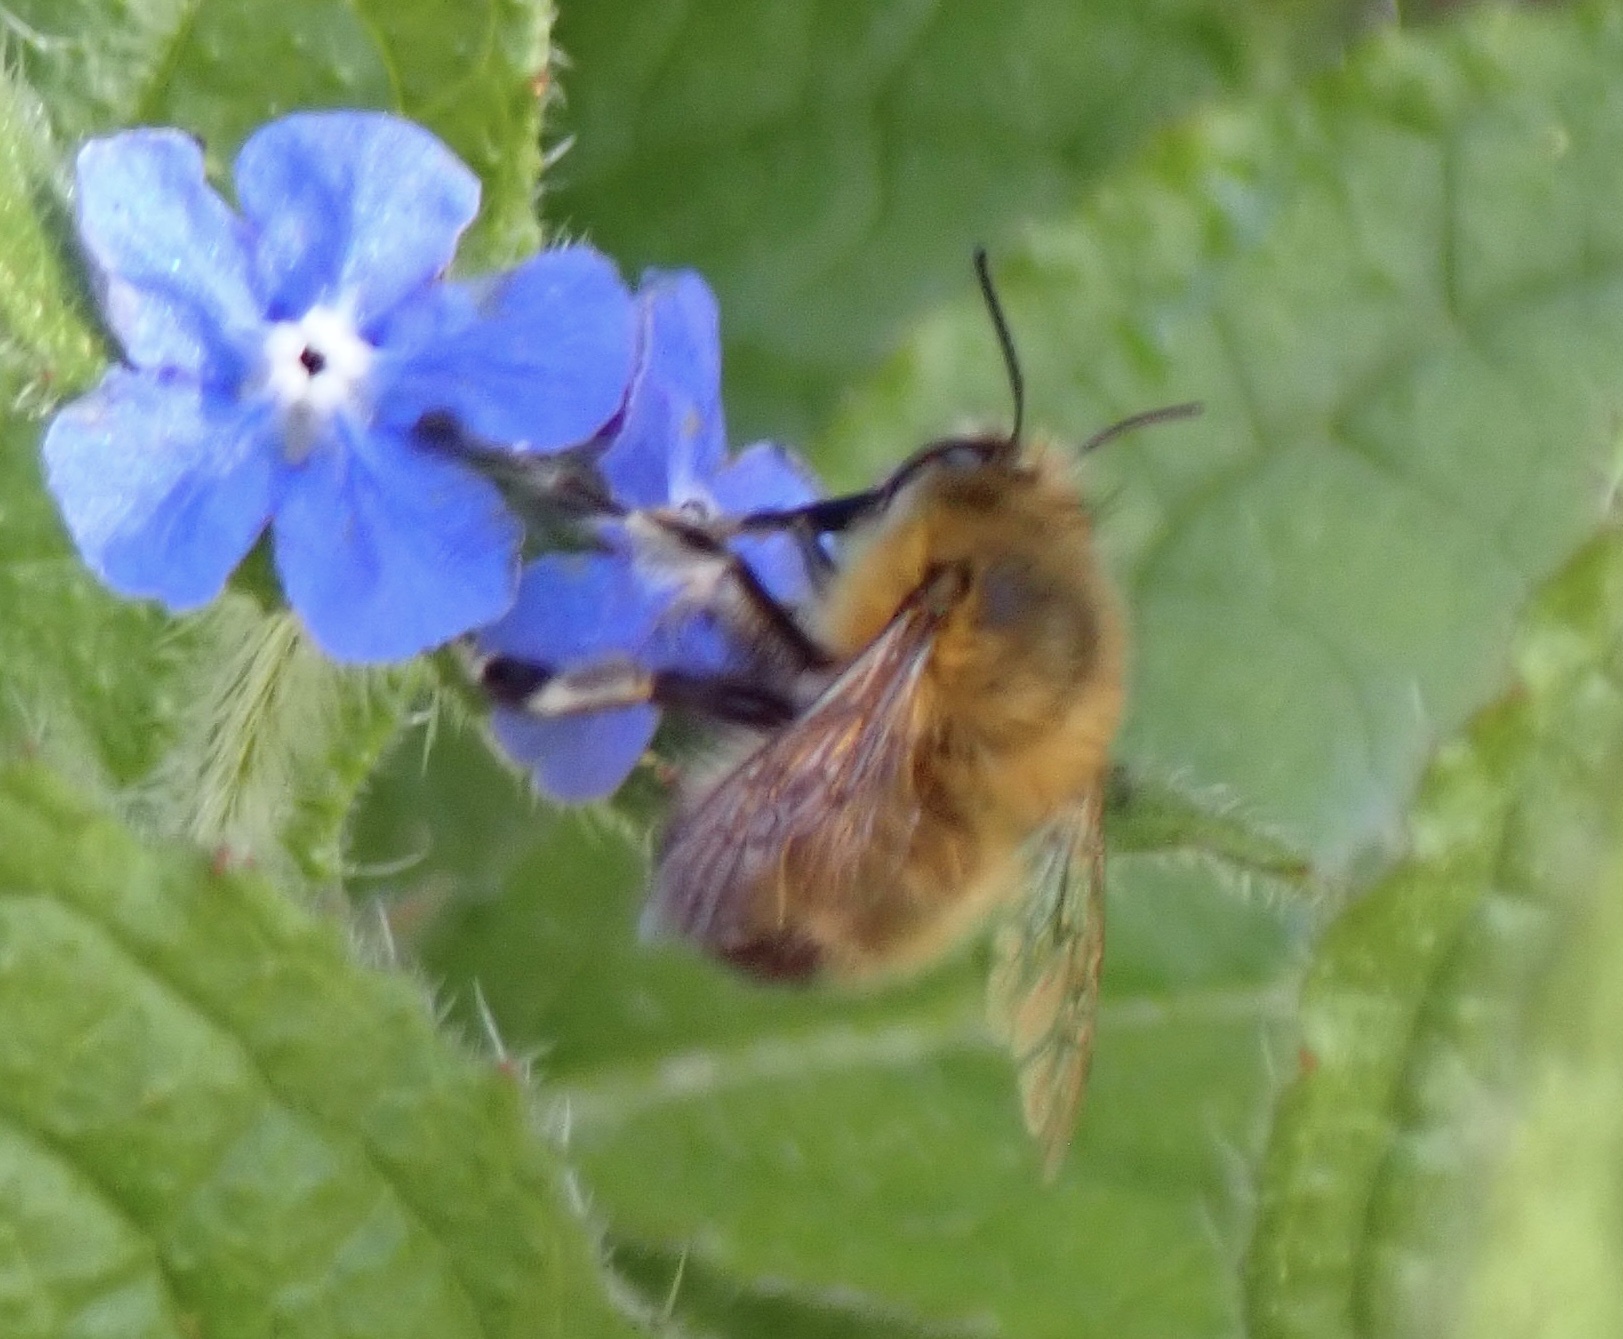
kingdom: Animalia
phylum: Arthropoda
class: Insecta
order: Hymenoptera
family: Apidae
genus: Anthophora
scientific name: Anthophora plumipes
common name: Hairy-footed flower bee
